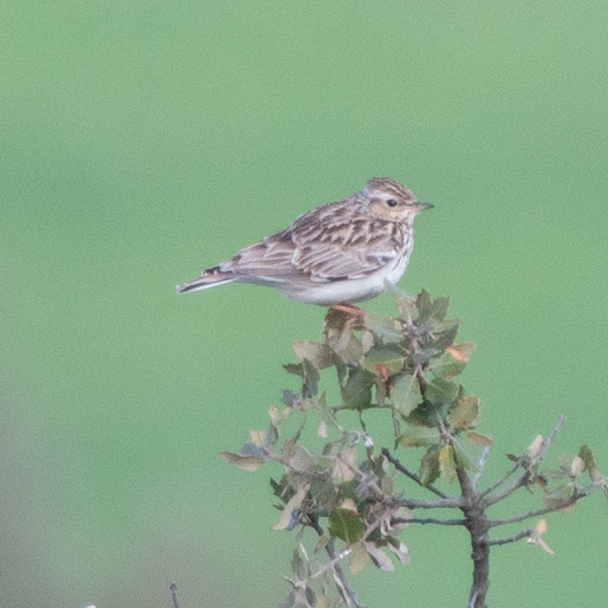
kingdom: Animalia
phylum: Chordata
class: Aves
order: Passeriformes
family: Alaudidae
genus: Lullula
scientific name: Lullula arborea
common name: Woodlark
